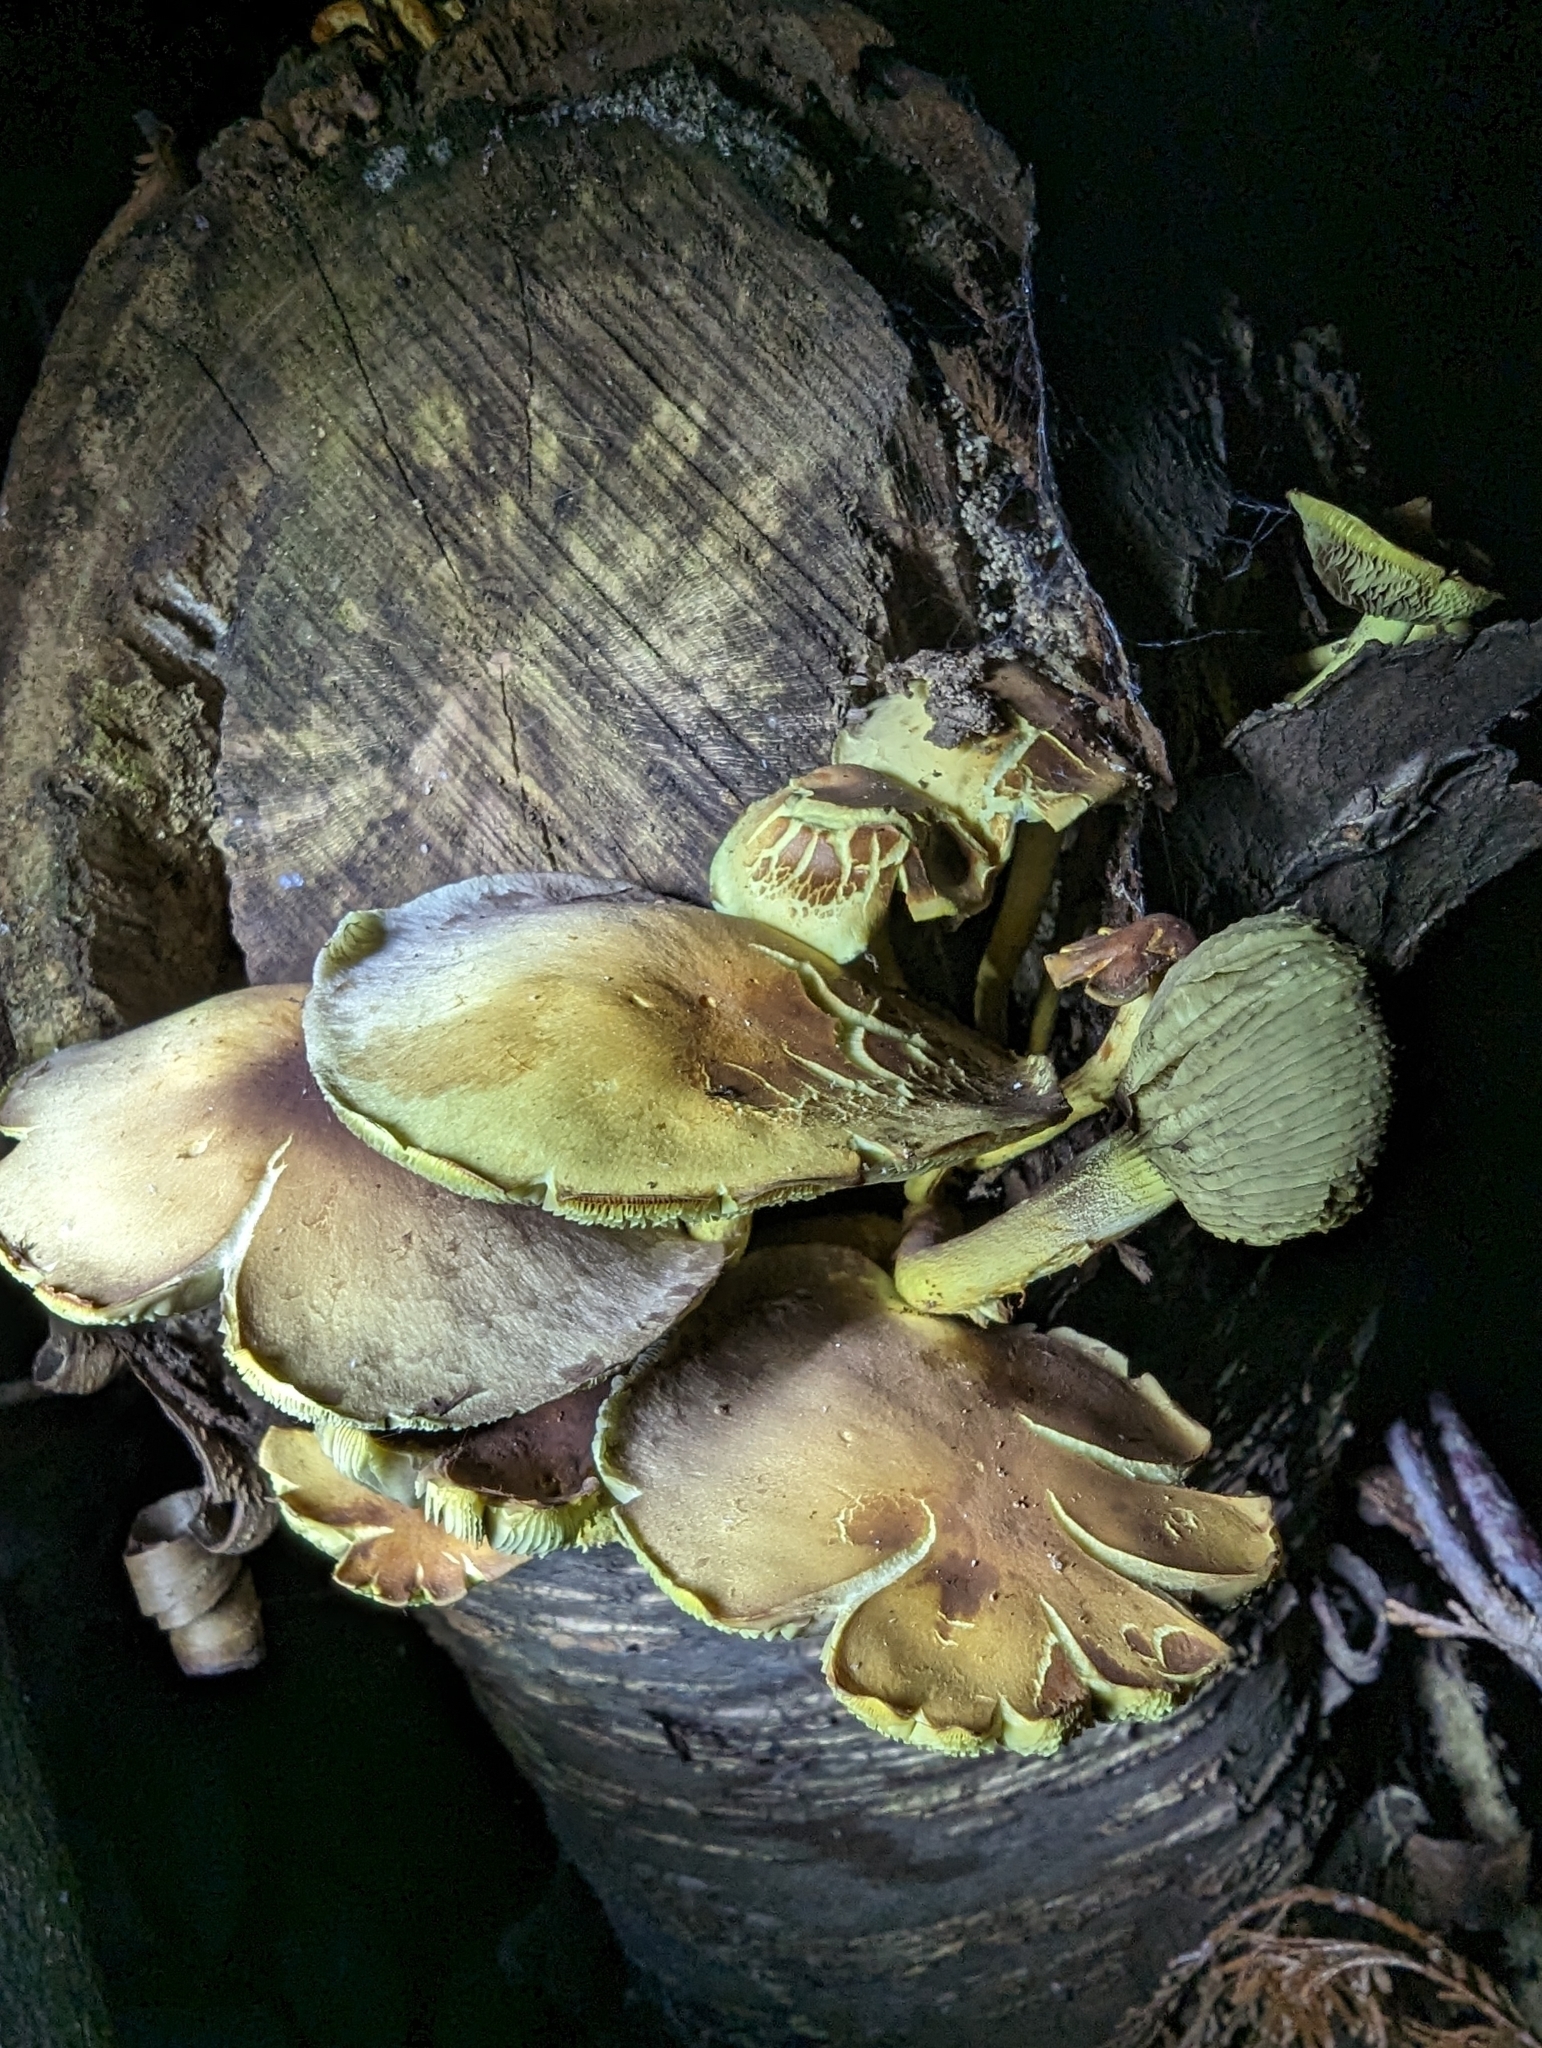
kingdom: Fungi
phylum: Basidiomycota
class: Agaricomycetes
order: Agaricales
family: Strophariaceae
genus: Hypholoma
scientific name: Hypholoma fasciculare
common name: Sulphur tuft
